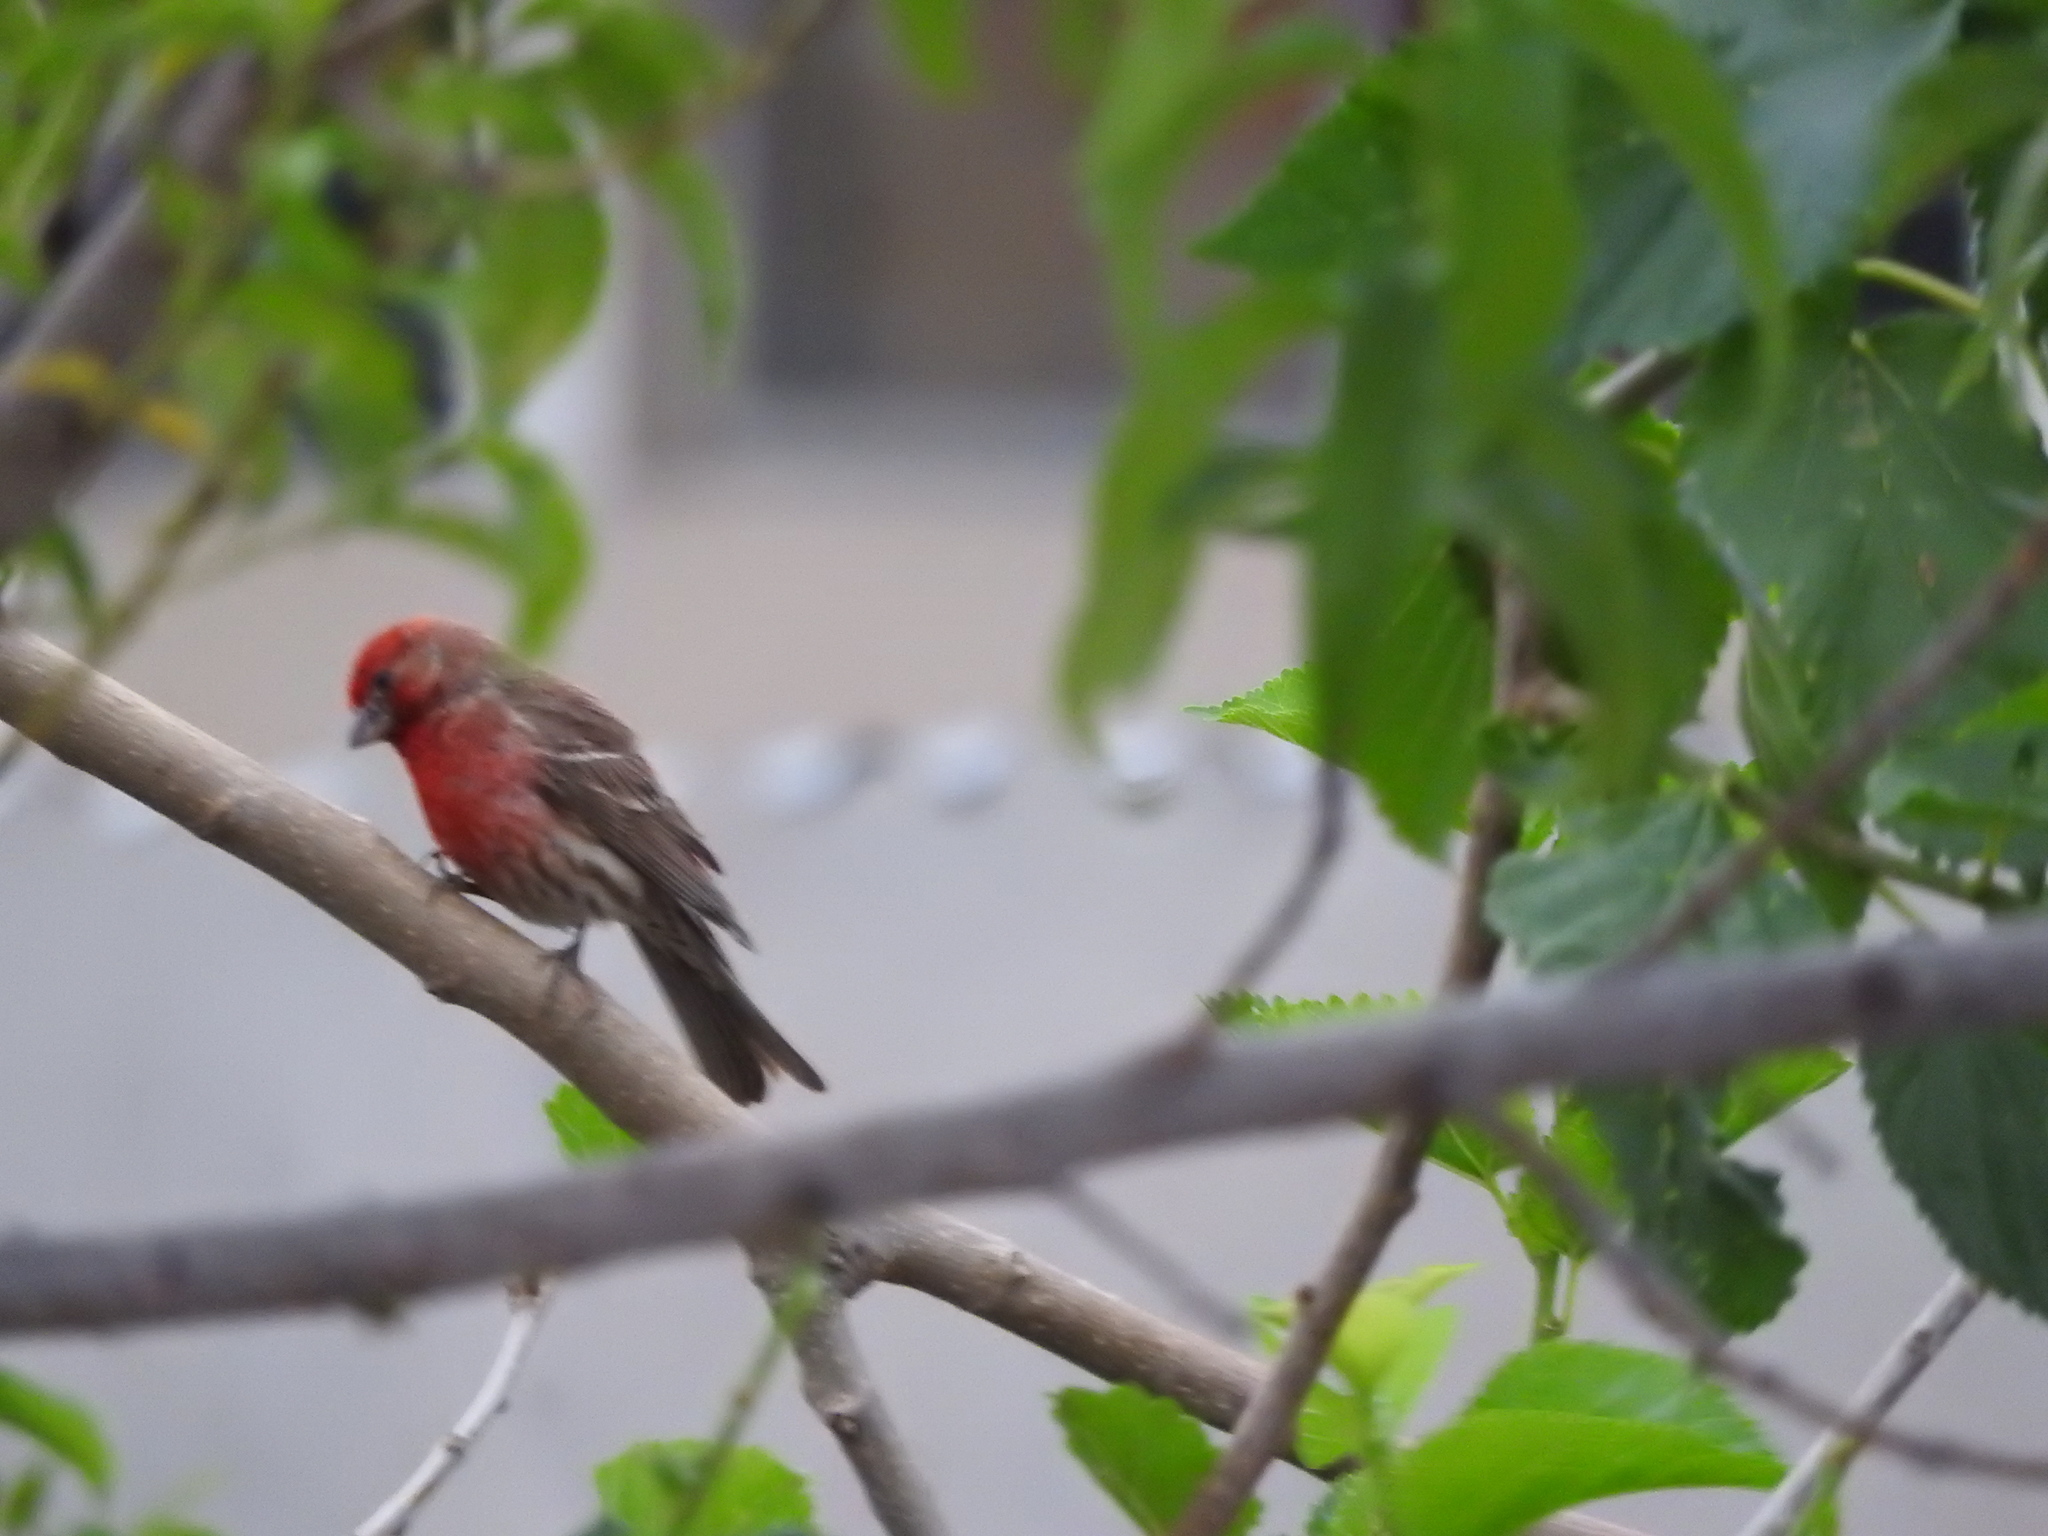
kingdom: Animalia
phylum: Chordata
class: Aves
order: Passeriformes
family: Fringillidae
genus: Haemorhous
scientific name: Haemorhous mexicanus
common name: House finch
